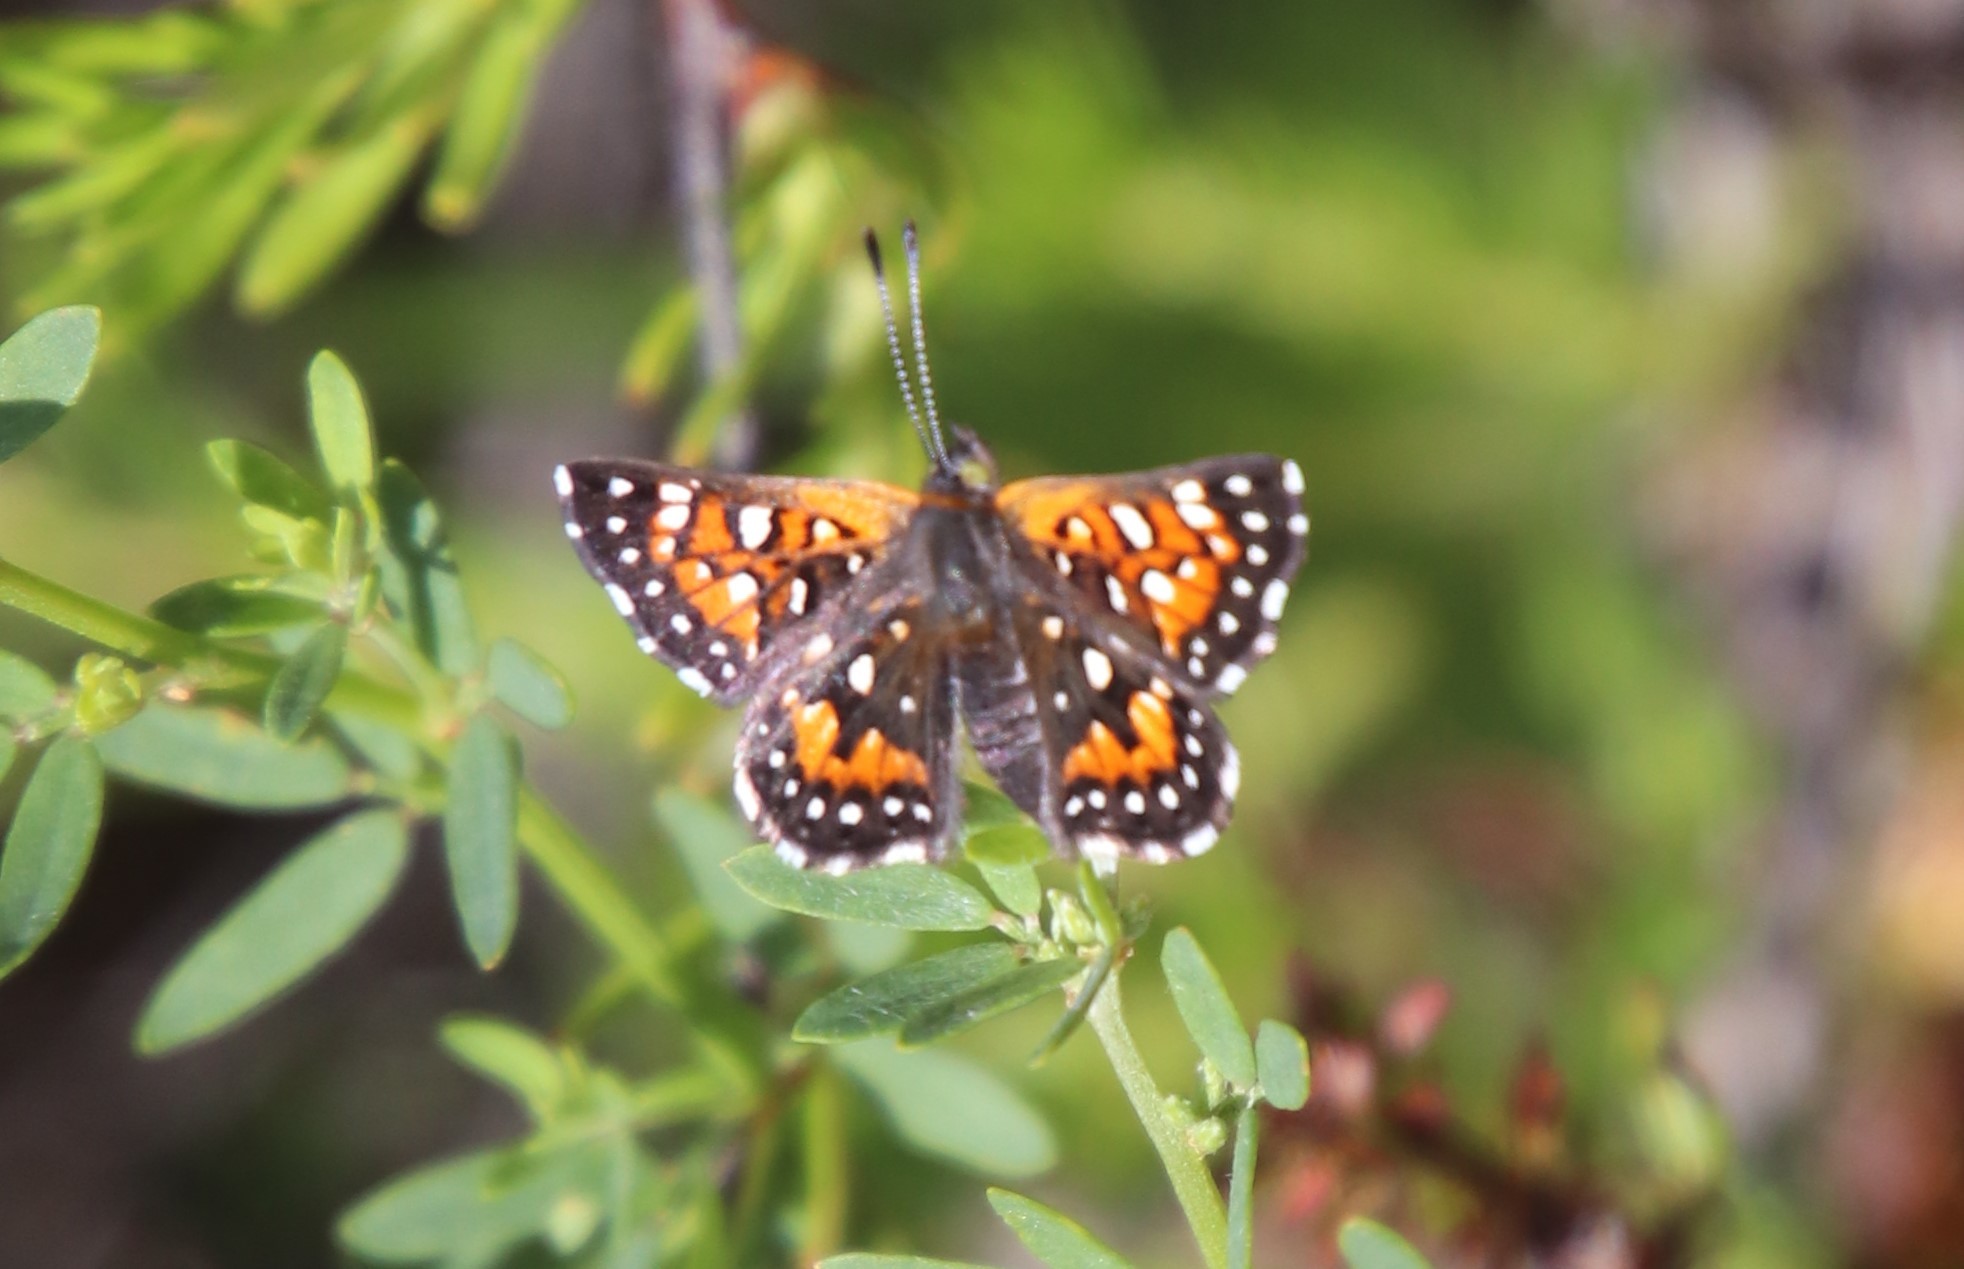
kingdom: Animalia
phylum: Arthropoda
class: Insecta
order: Lepidoptera
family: Riodinidae
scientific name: Riodinidae
